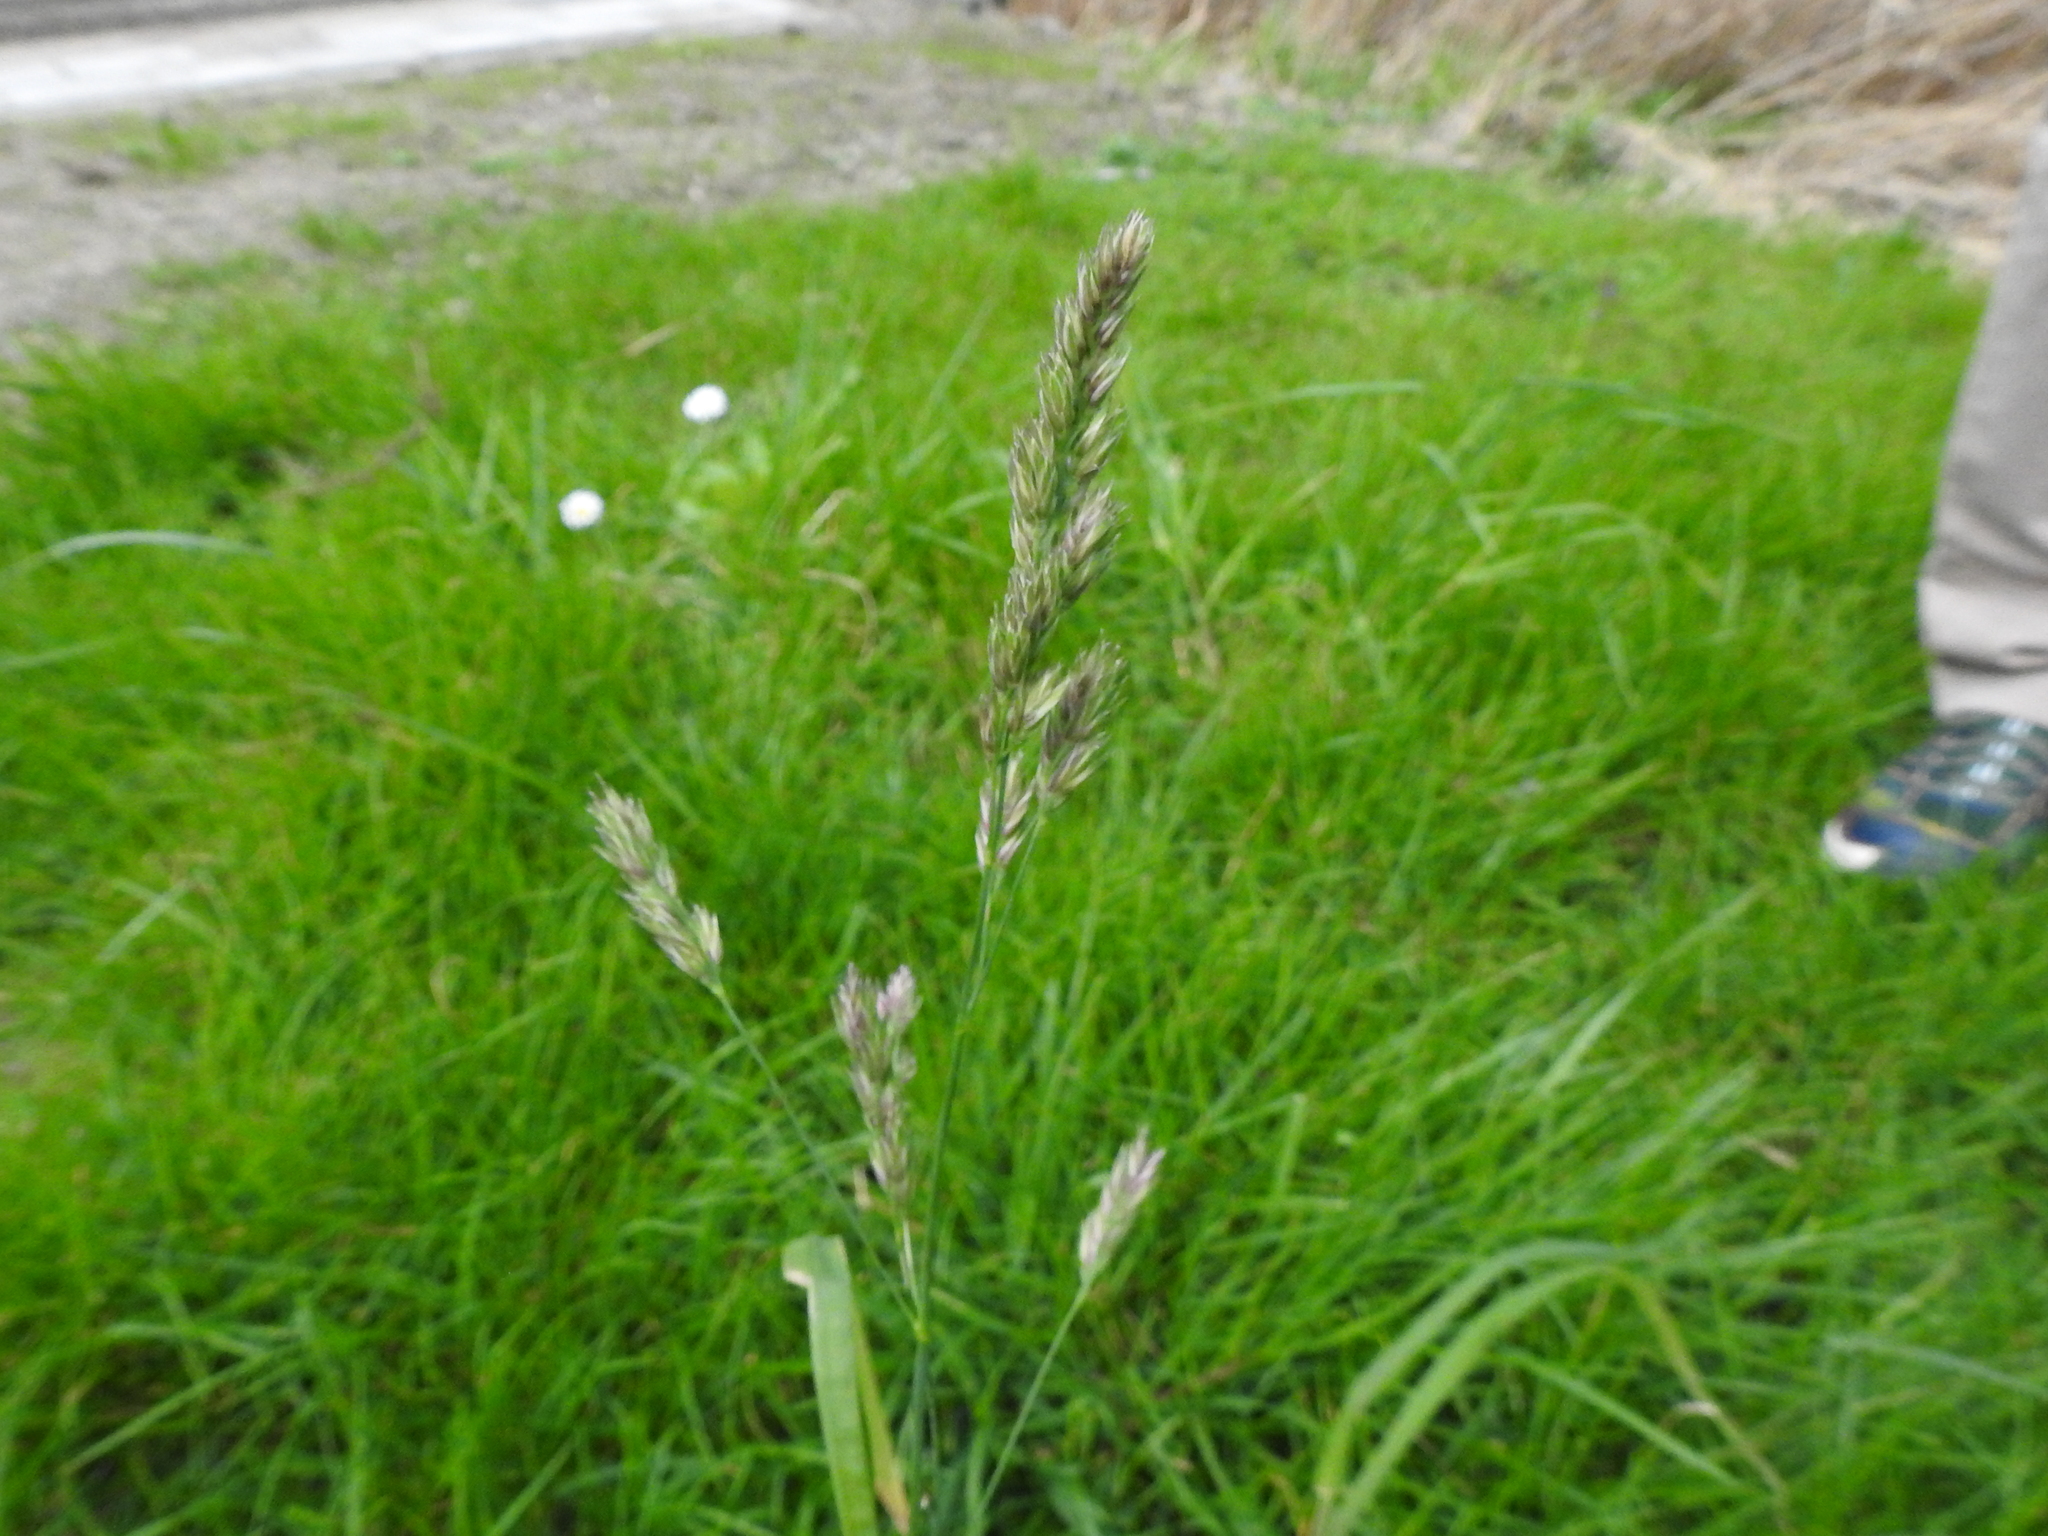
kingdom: Plantae
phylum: Tracheophyta
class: Liliopsida
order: Poales
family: Poaceae
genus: Dactylis
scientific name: Dactylis glomerata
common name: Orchardgrass
